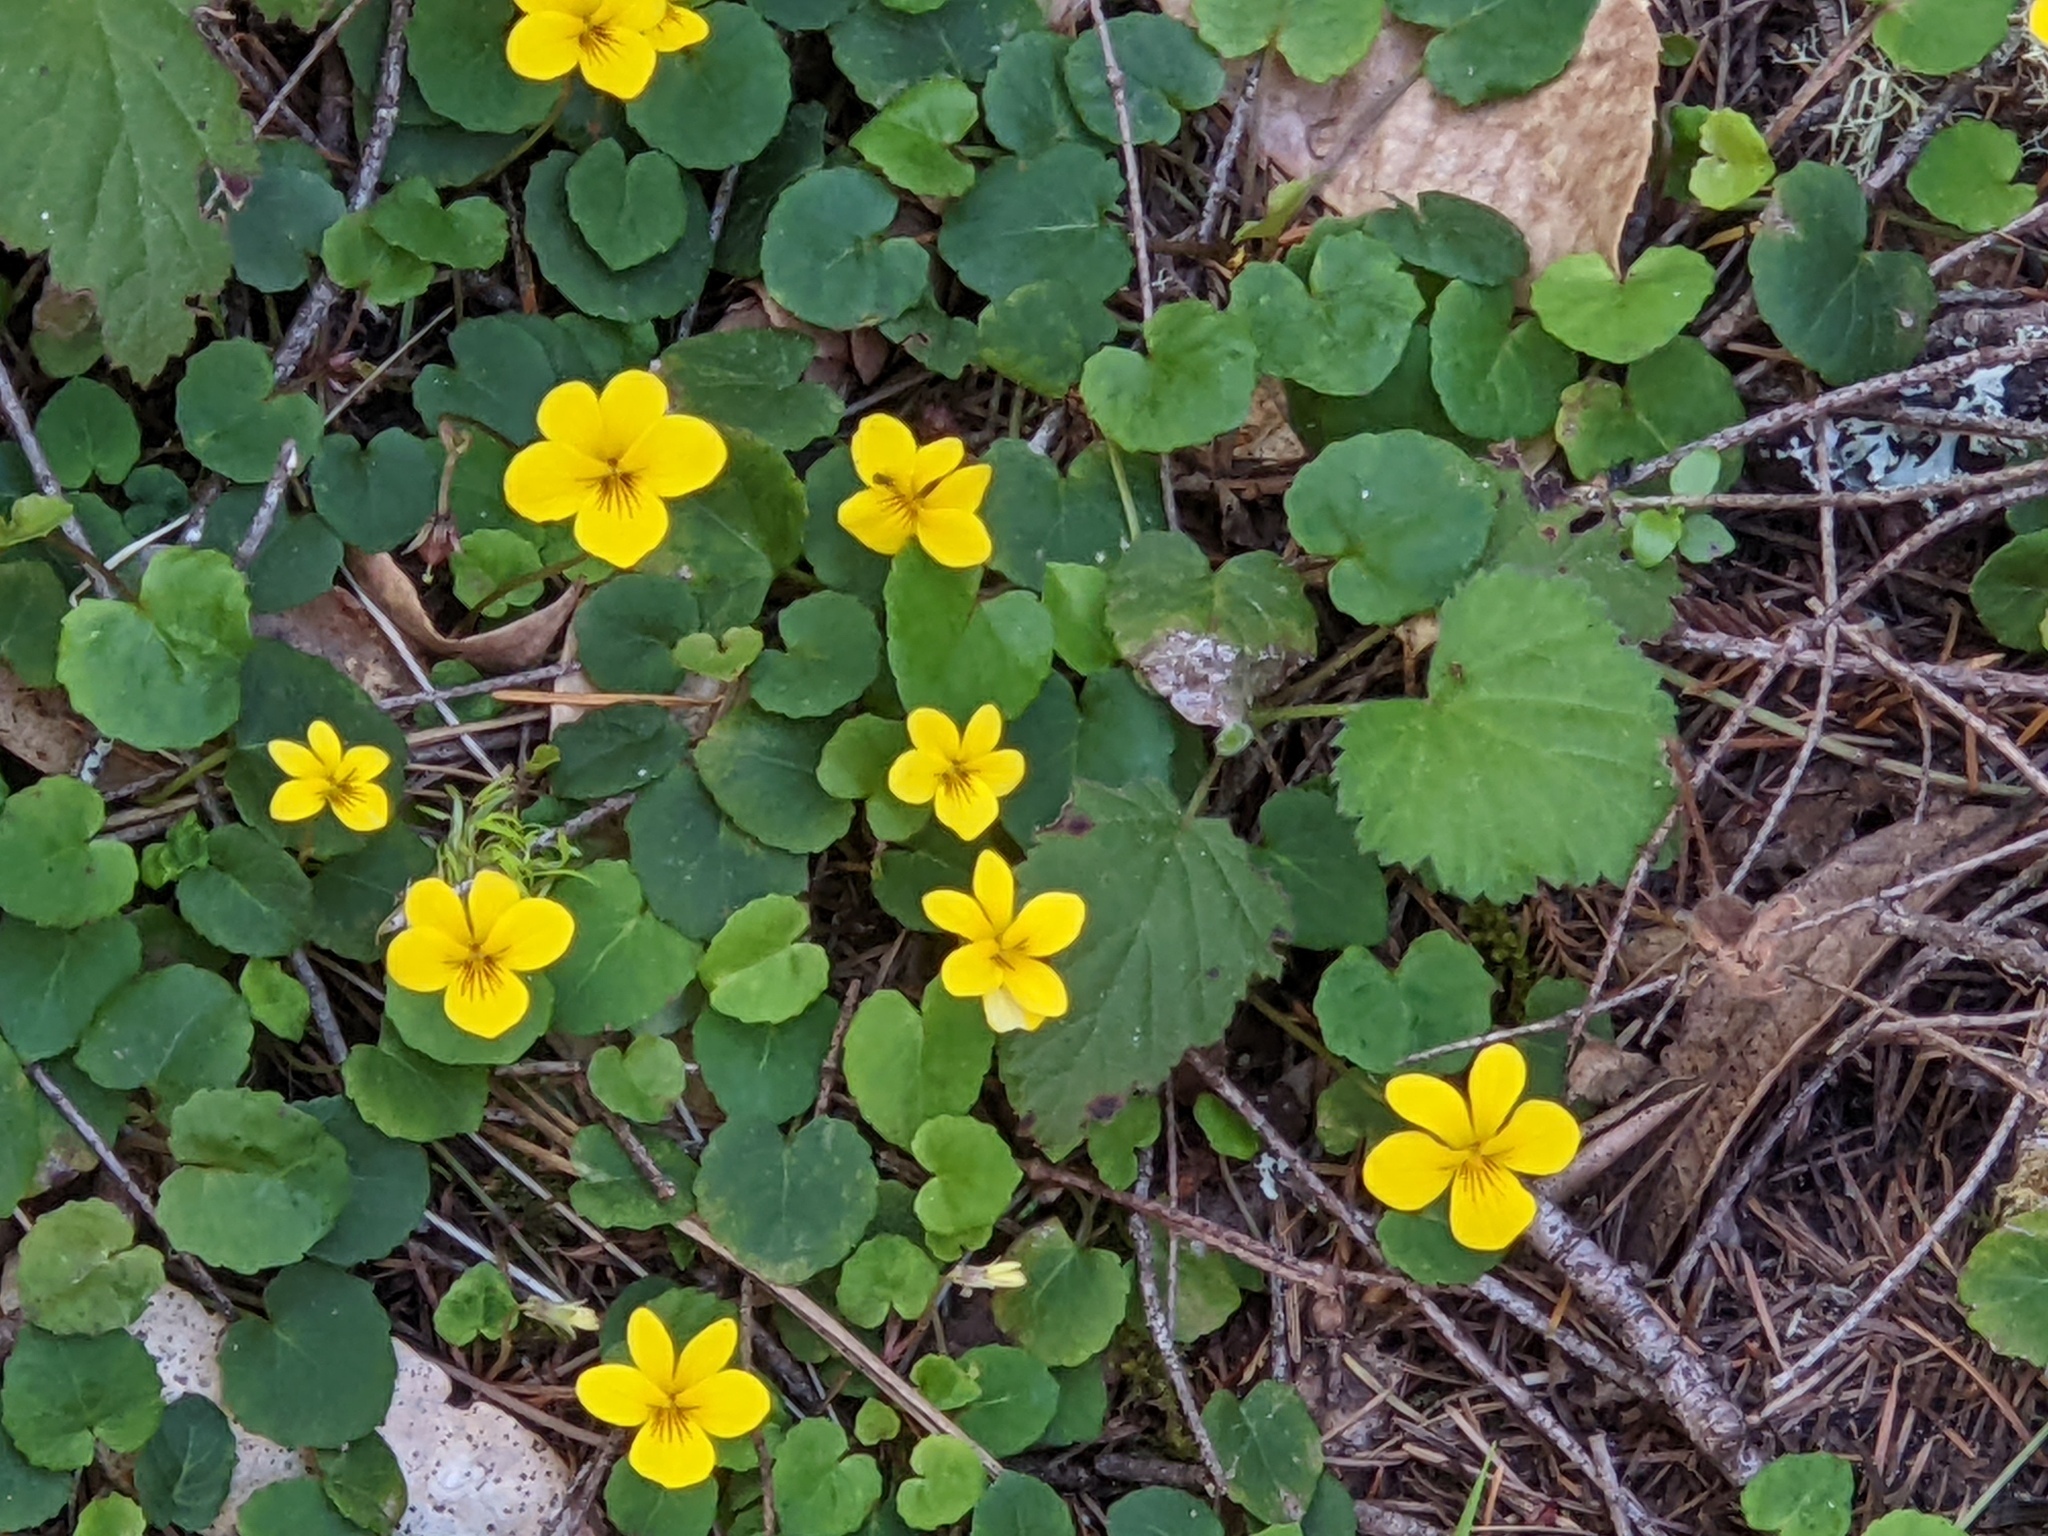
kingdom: Plantae
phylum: Tracheophyta
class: Magnoliopsida
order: Malpighiales
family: Violaceae
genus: Viola
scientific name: Viola sempervirens
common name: Evergreen violet
